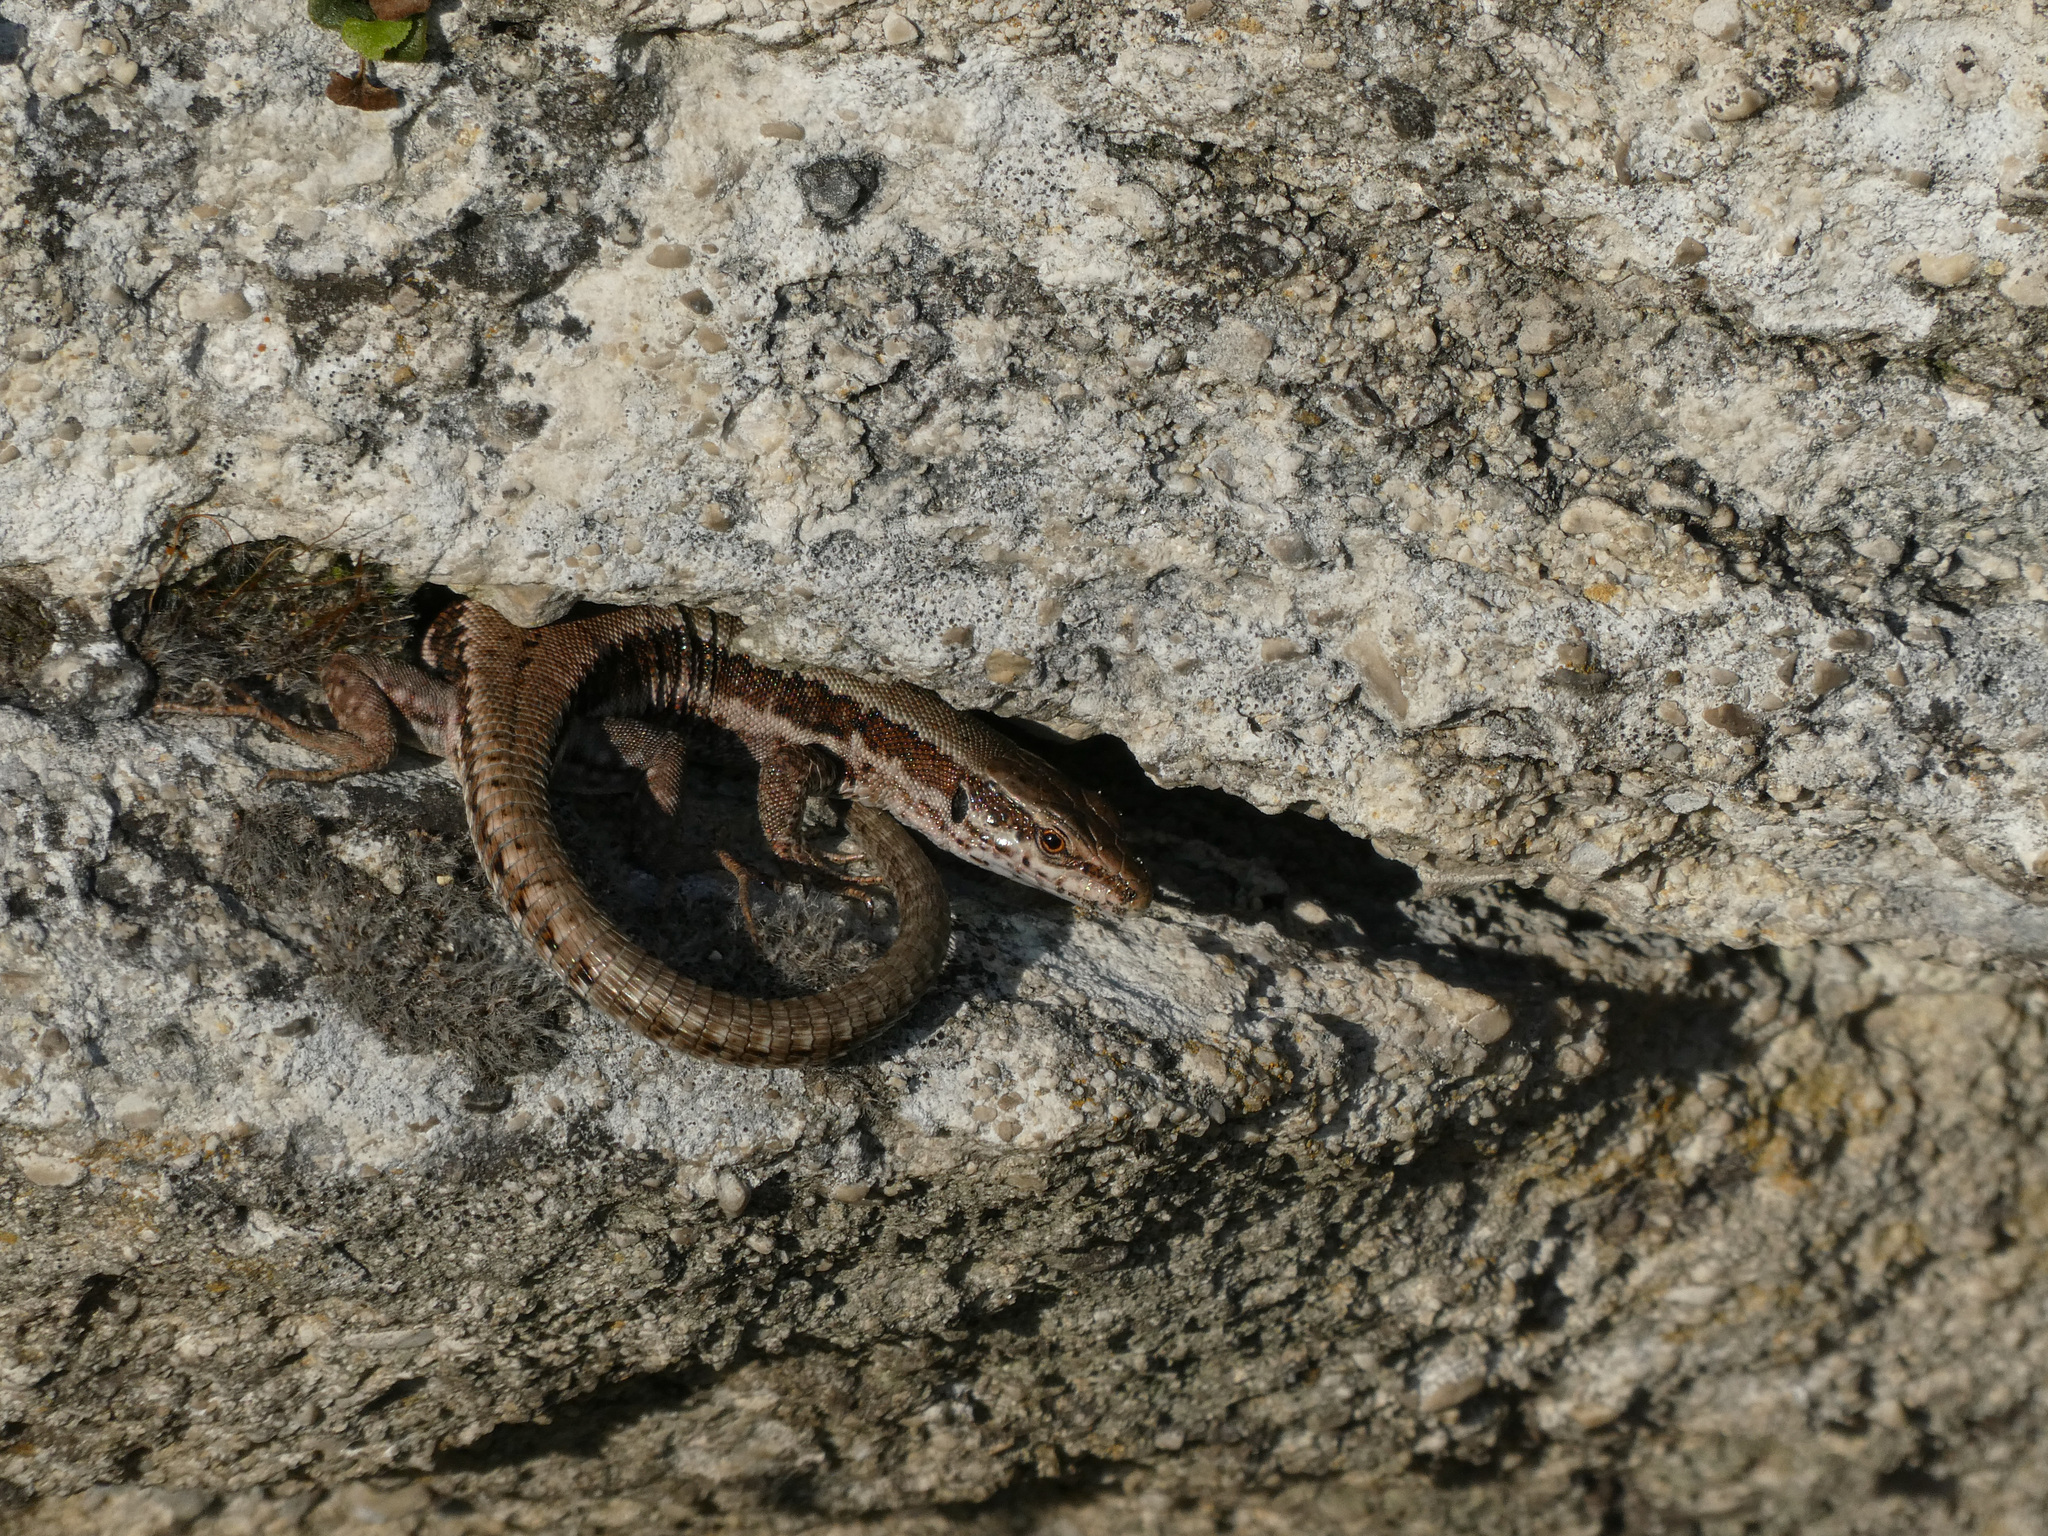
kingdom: Animalia
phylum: Chordata
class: Squamata
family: Lacertidae
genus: Podarcis
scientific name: Podarcis muralis
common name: Common wall lizard
